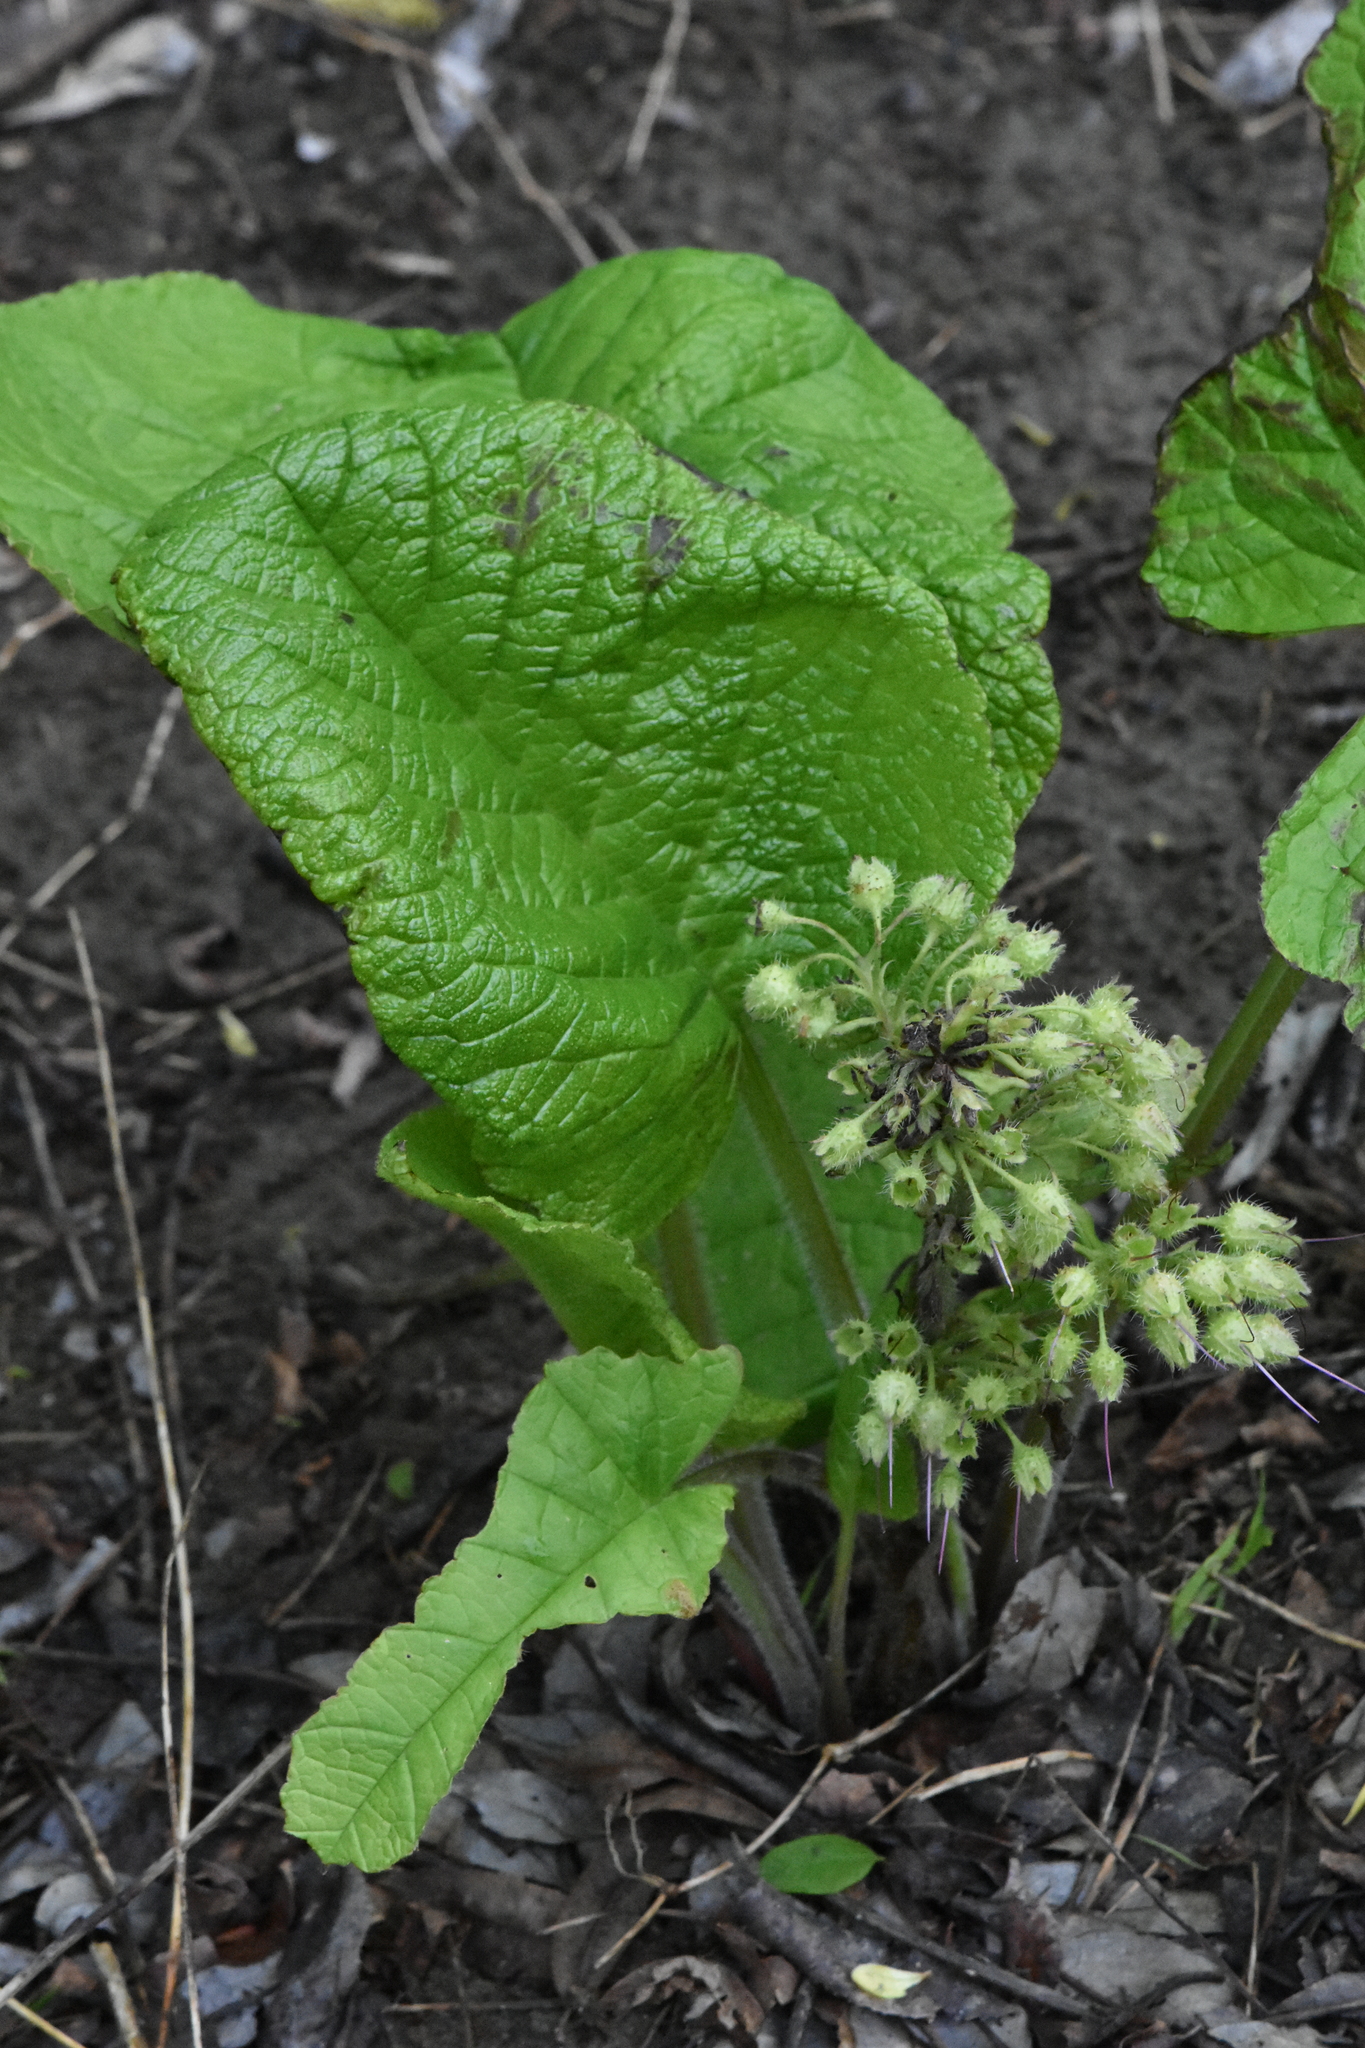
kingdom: Plantae
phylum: Tracheophyta
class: Magnoliopsida
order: Boraginales
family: Boraginaceae
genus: Trachystemon
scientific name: Trachystemon orientale
